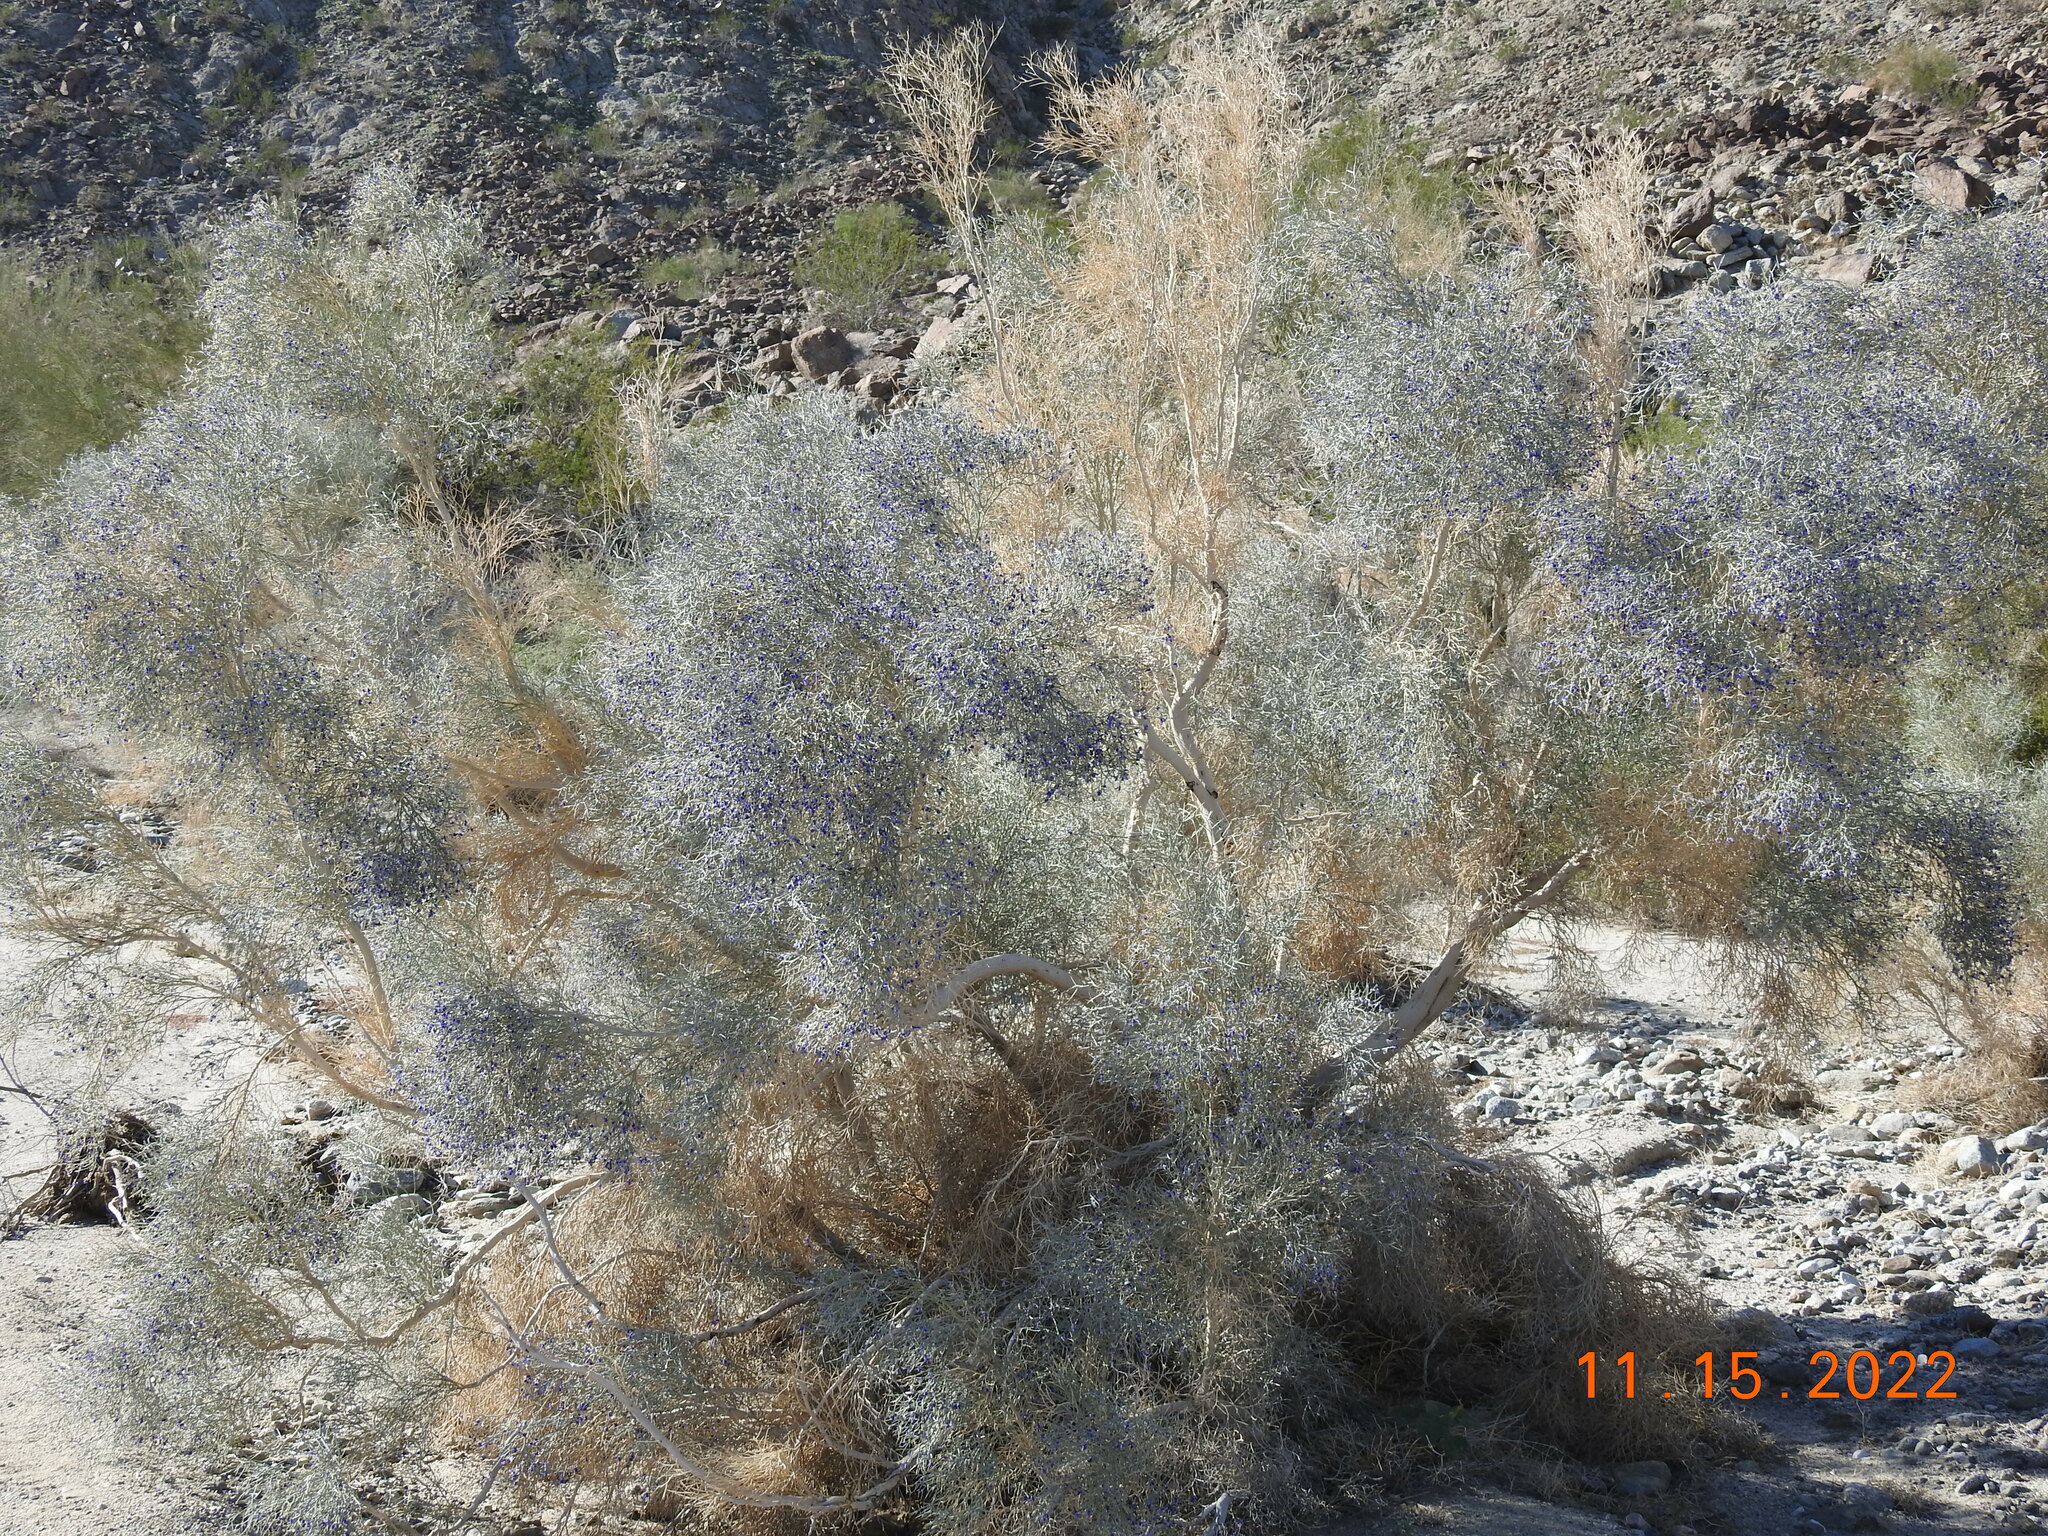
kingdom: Plantae
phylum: Tracheophyta
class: Magnoliopsida
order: Fabales
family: Fabaceae
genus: Psorothamnus
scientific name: Psorothamnus spinosus
